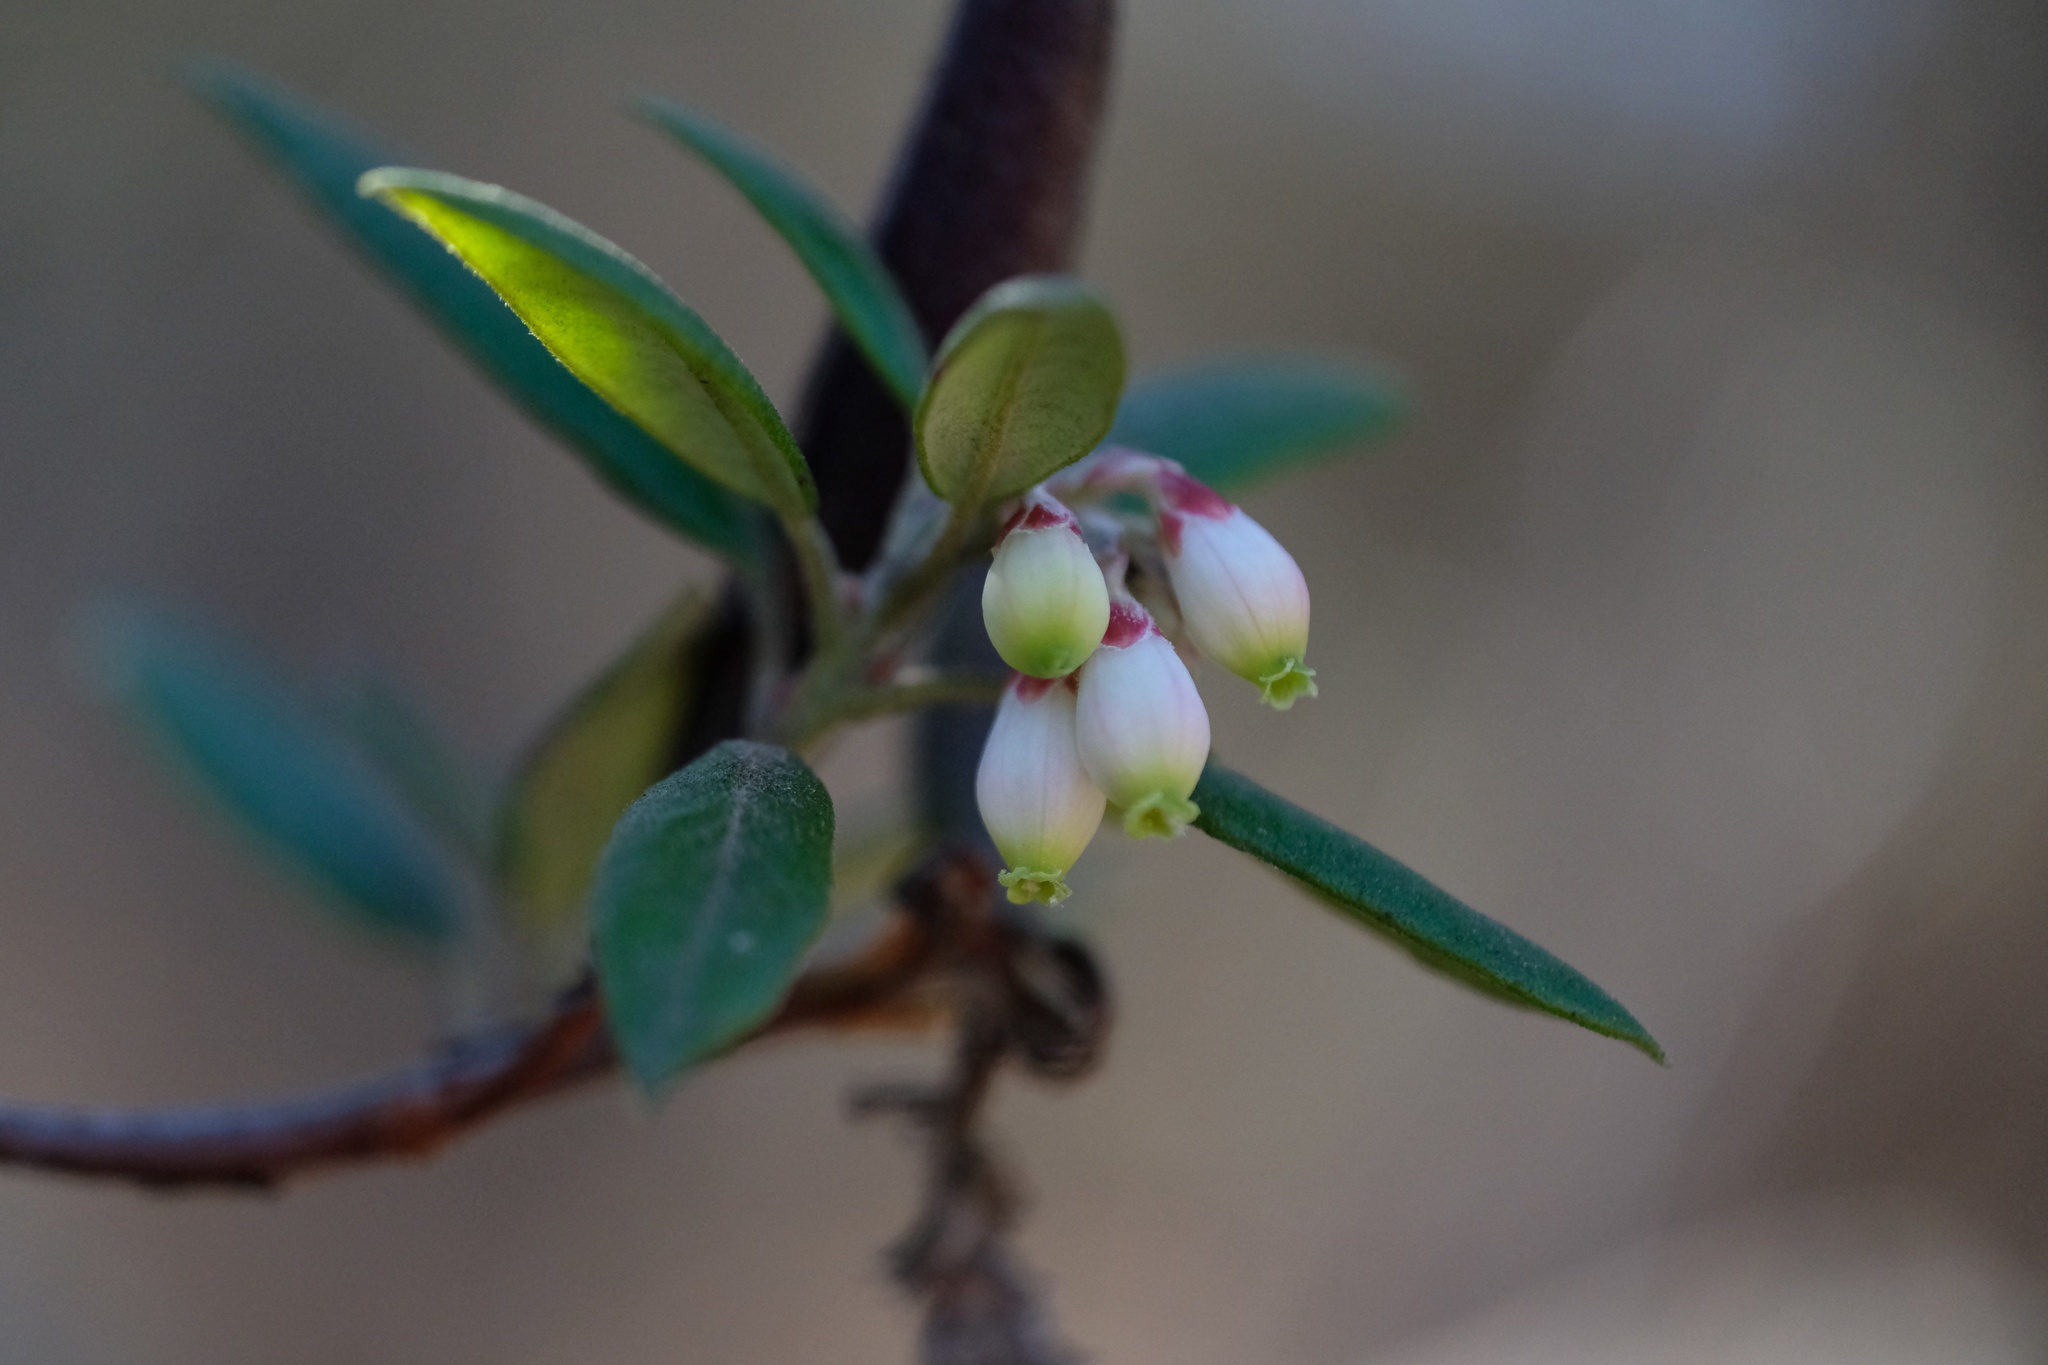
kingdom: Plantae
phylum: Tracheophyta
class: Magnoliopsida
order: Ericales
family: Ericaceae
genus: Arctostaphylos
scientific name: Arctostaphylos bicolor
